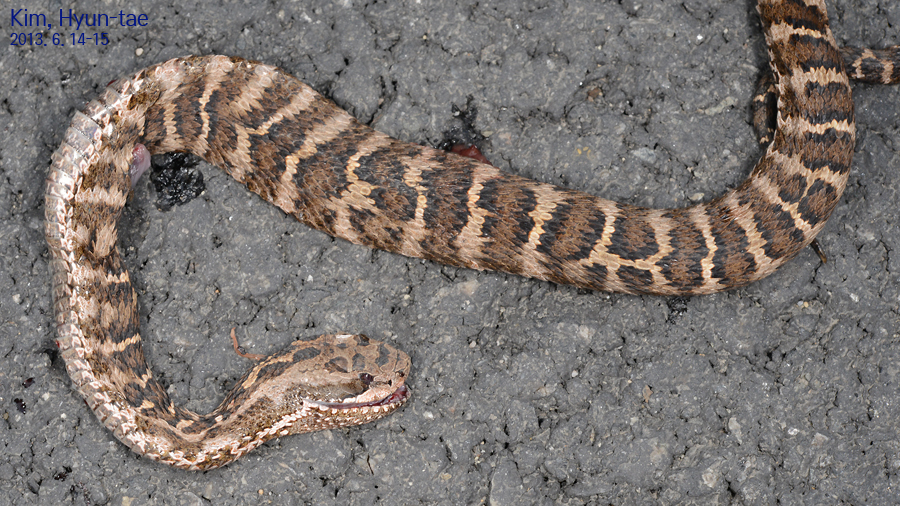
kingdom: Animalia
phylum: Chordata
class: Squamata
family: Viperidae
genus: Gloydius
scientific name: Gloydius intermedius
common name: Central asian pit viper
